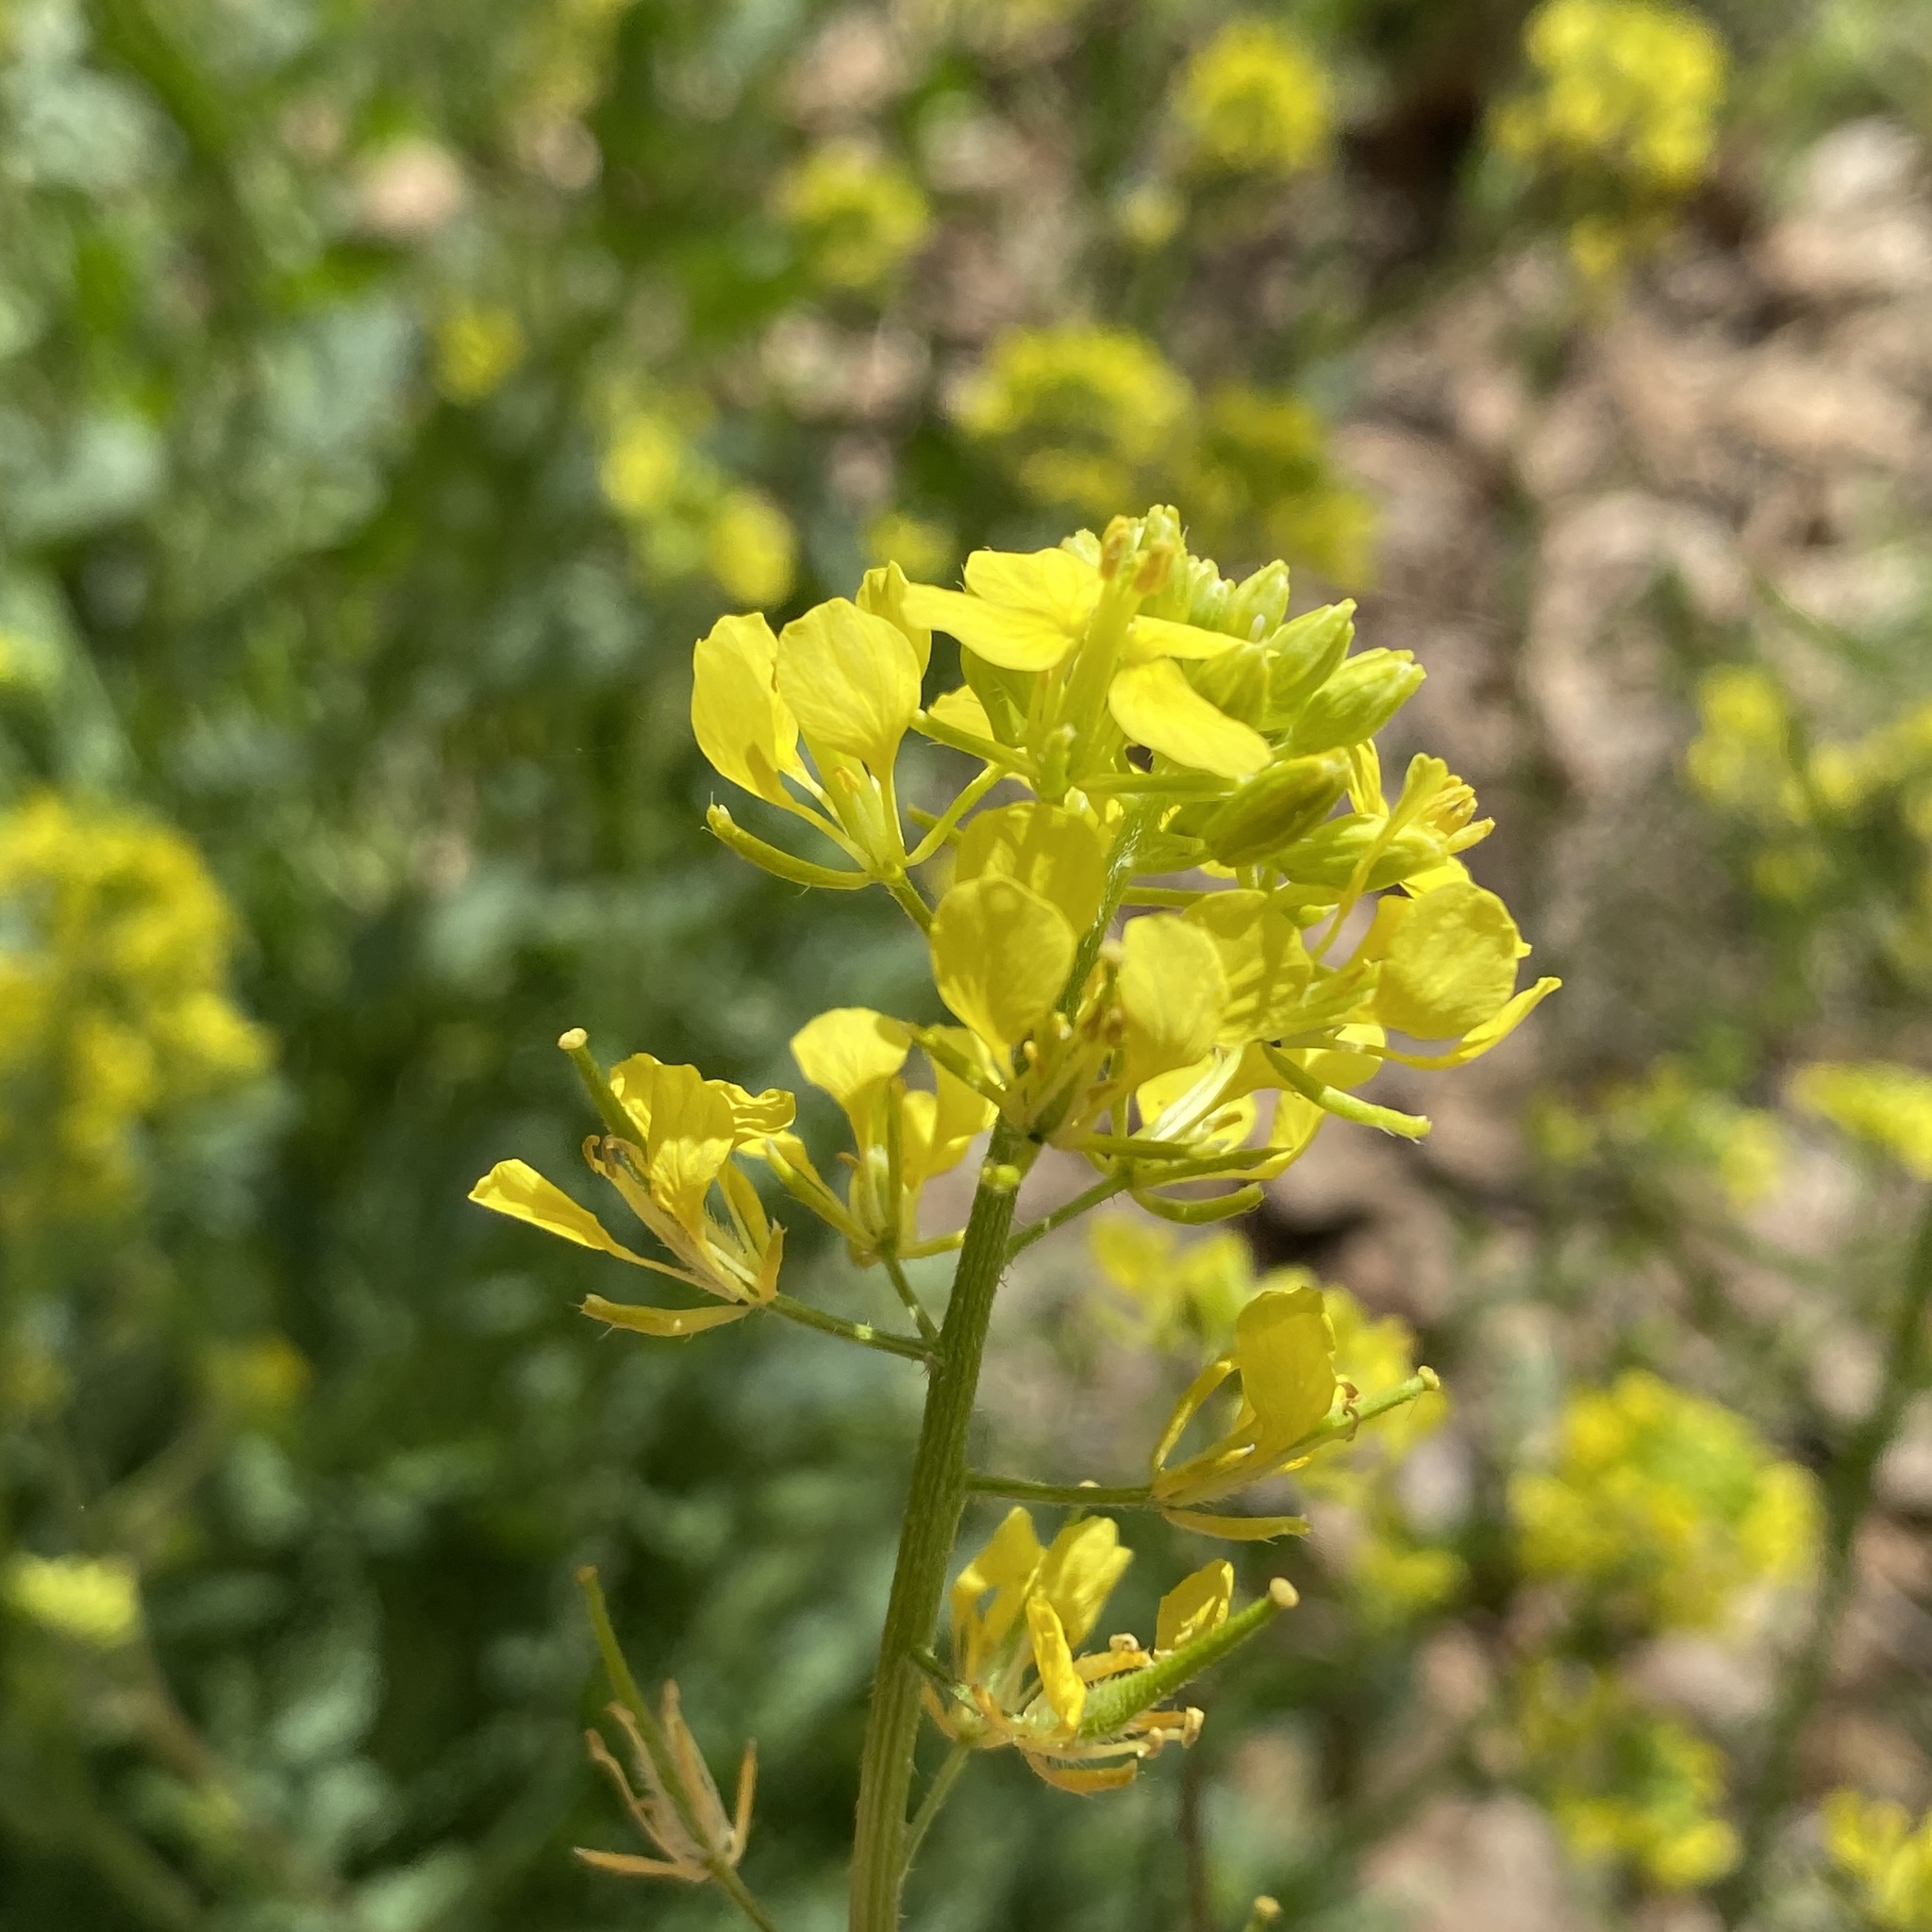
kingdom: Plantae
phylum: Tracheophyta
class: Magnoliopsida
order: Brassicales
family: Brassicaceae
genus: Sinapis
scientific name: Sinapis alba
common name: White mustard
